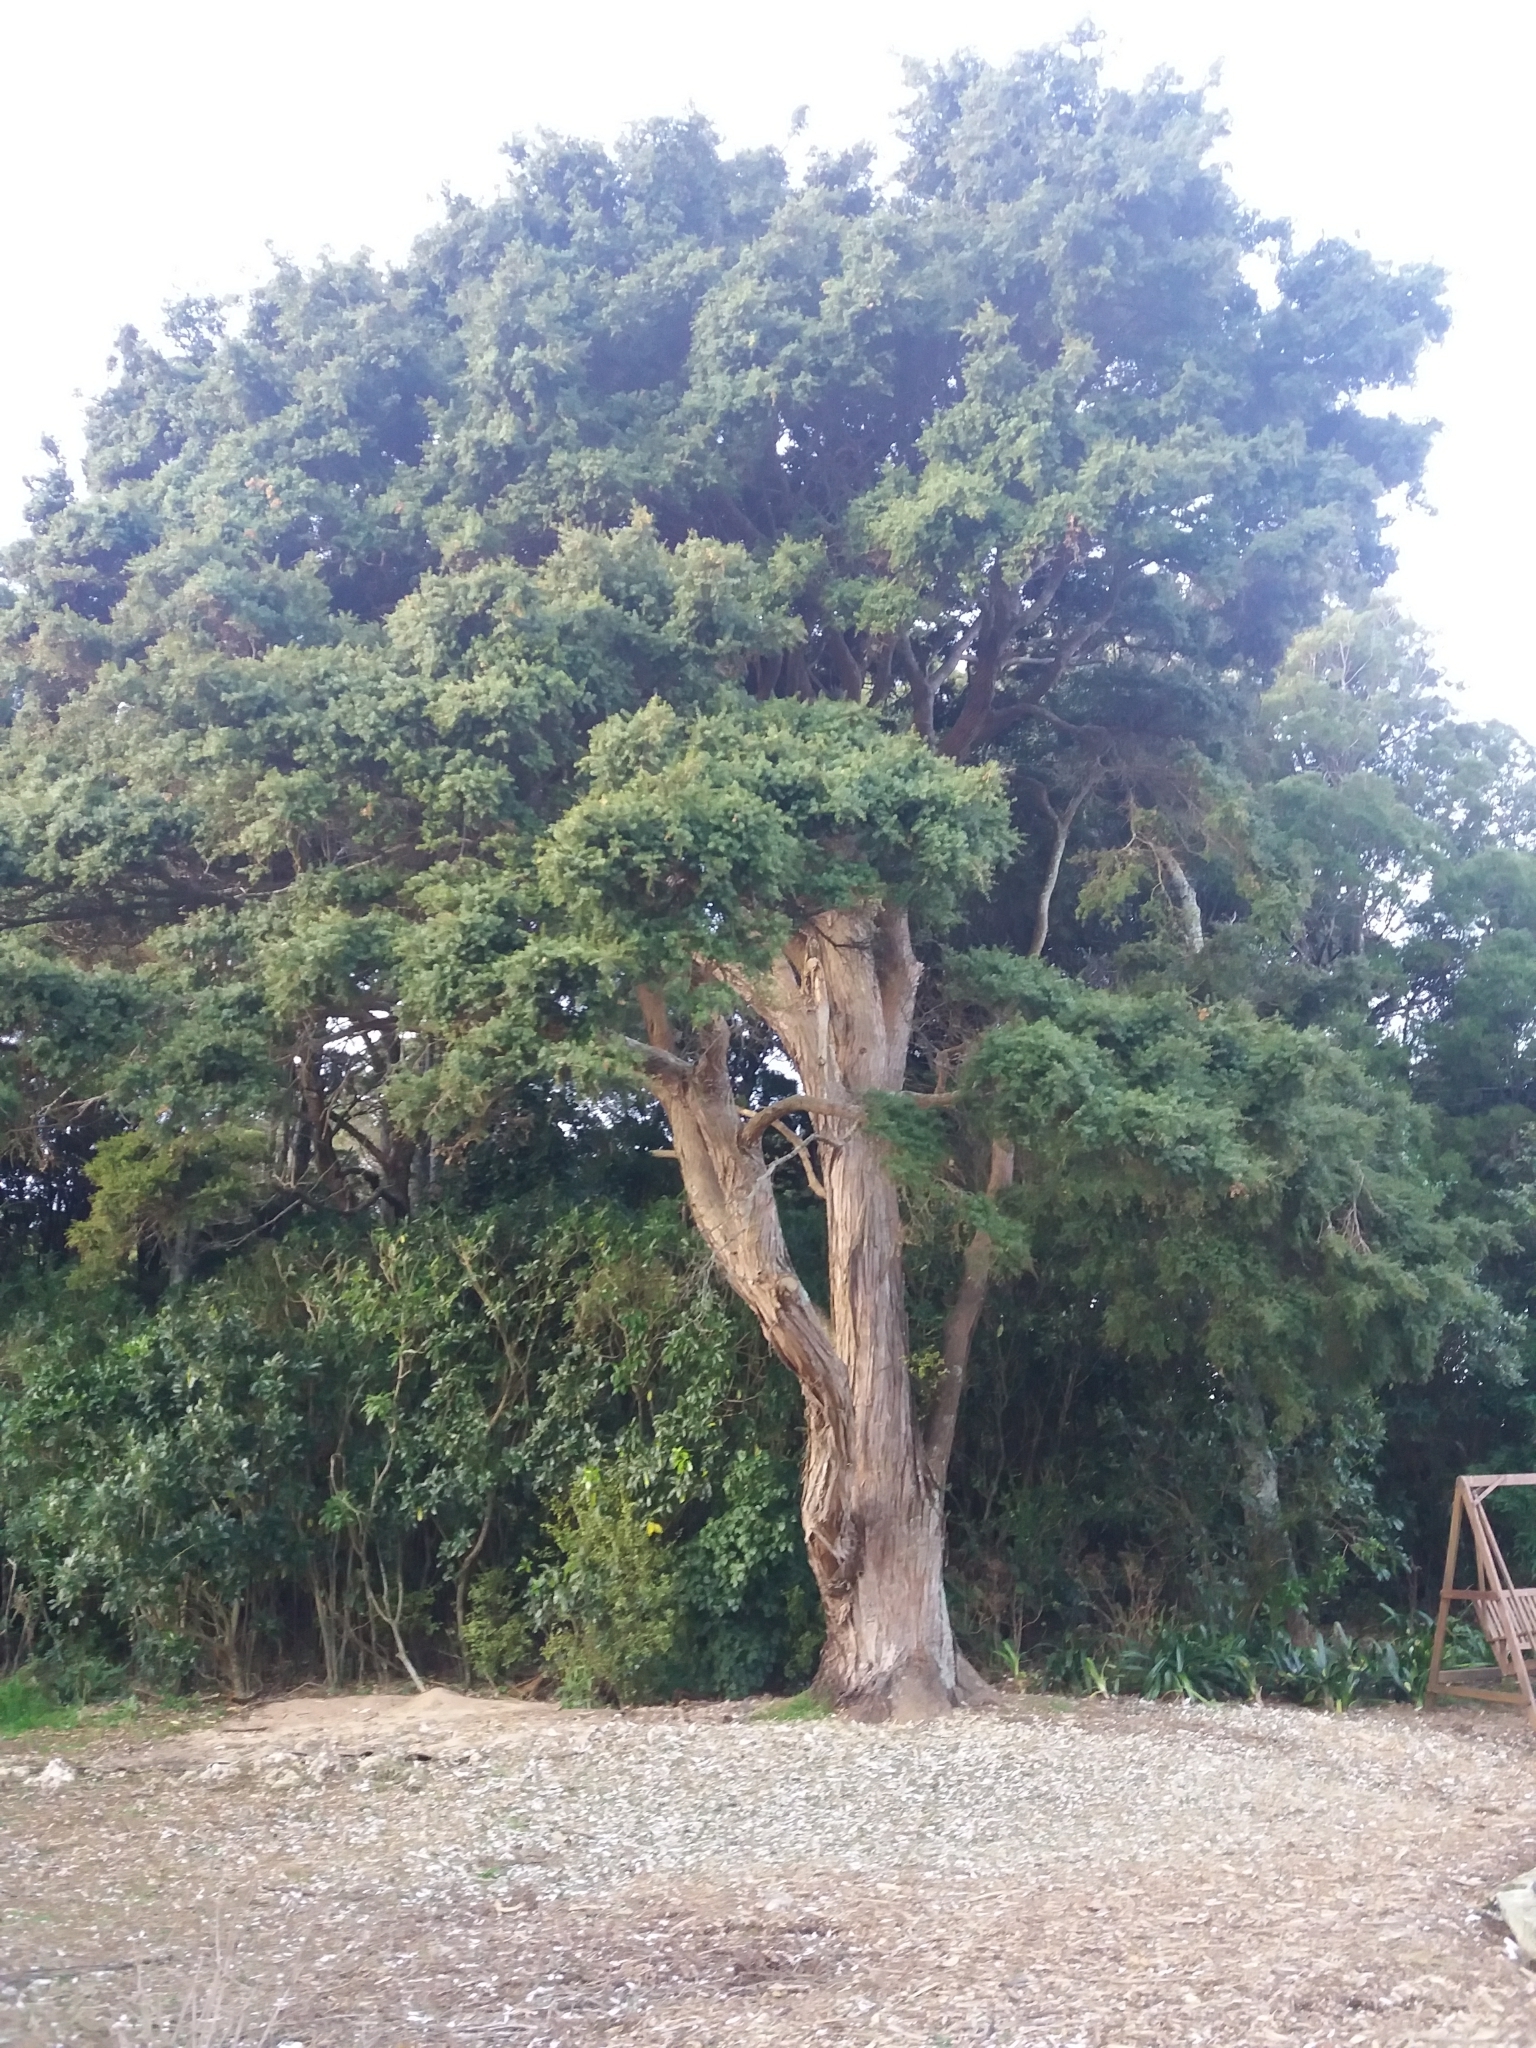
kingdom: Plantae
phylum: Tracheophyta
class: Pinopsida
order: Pinales
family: Podocarpaceae
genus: Podocarpus
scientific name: Podocarpus totara
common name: Totara
